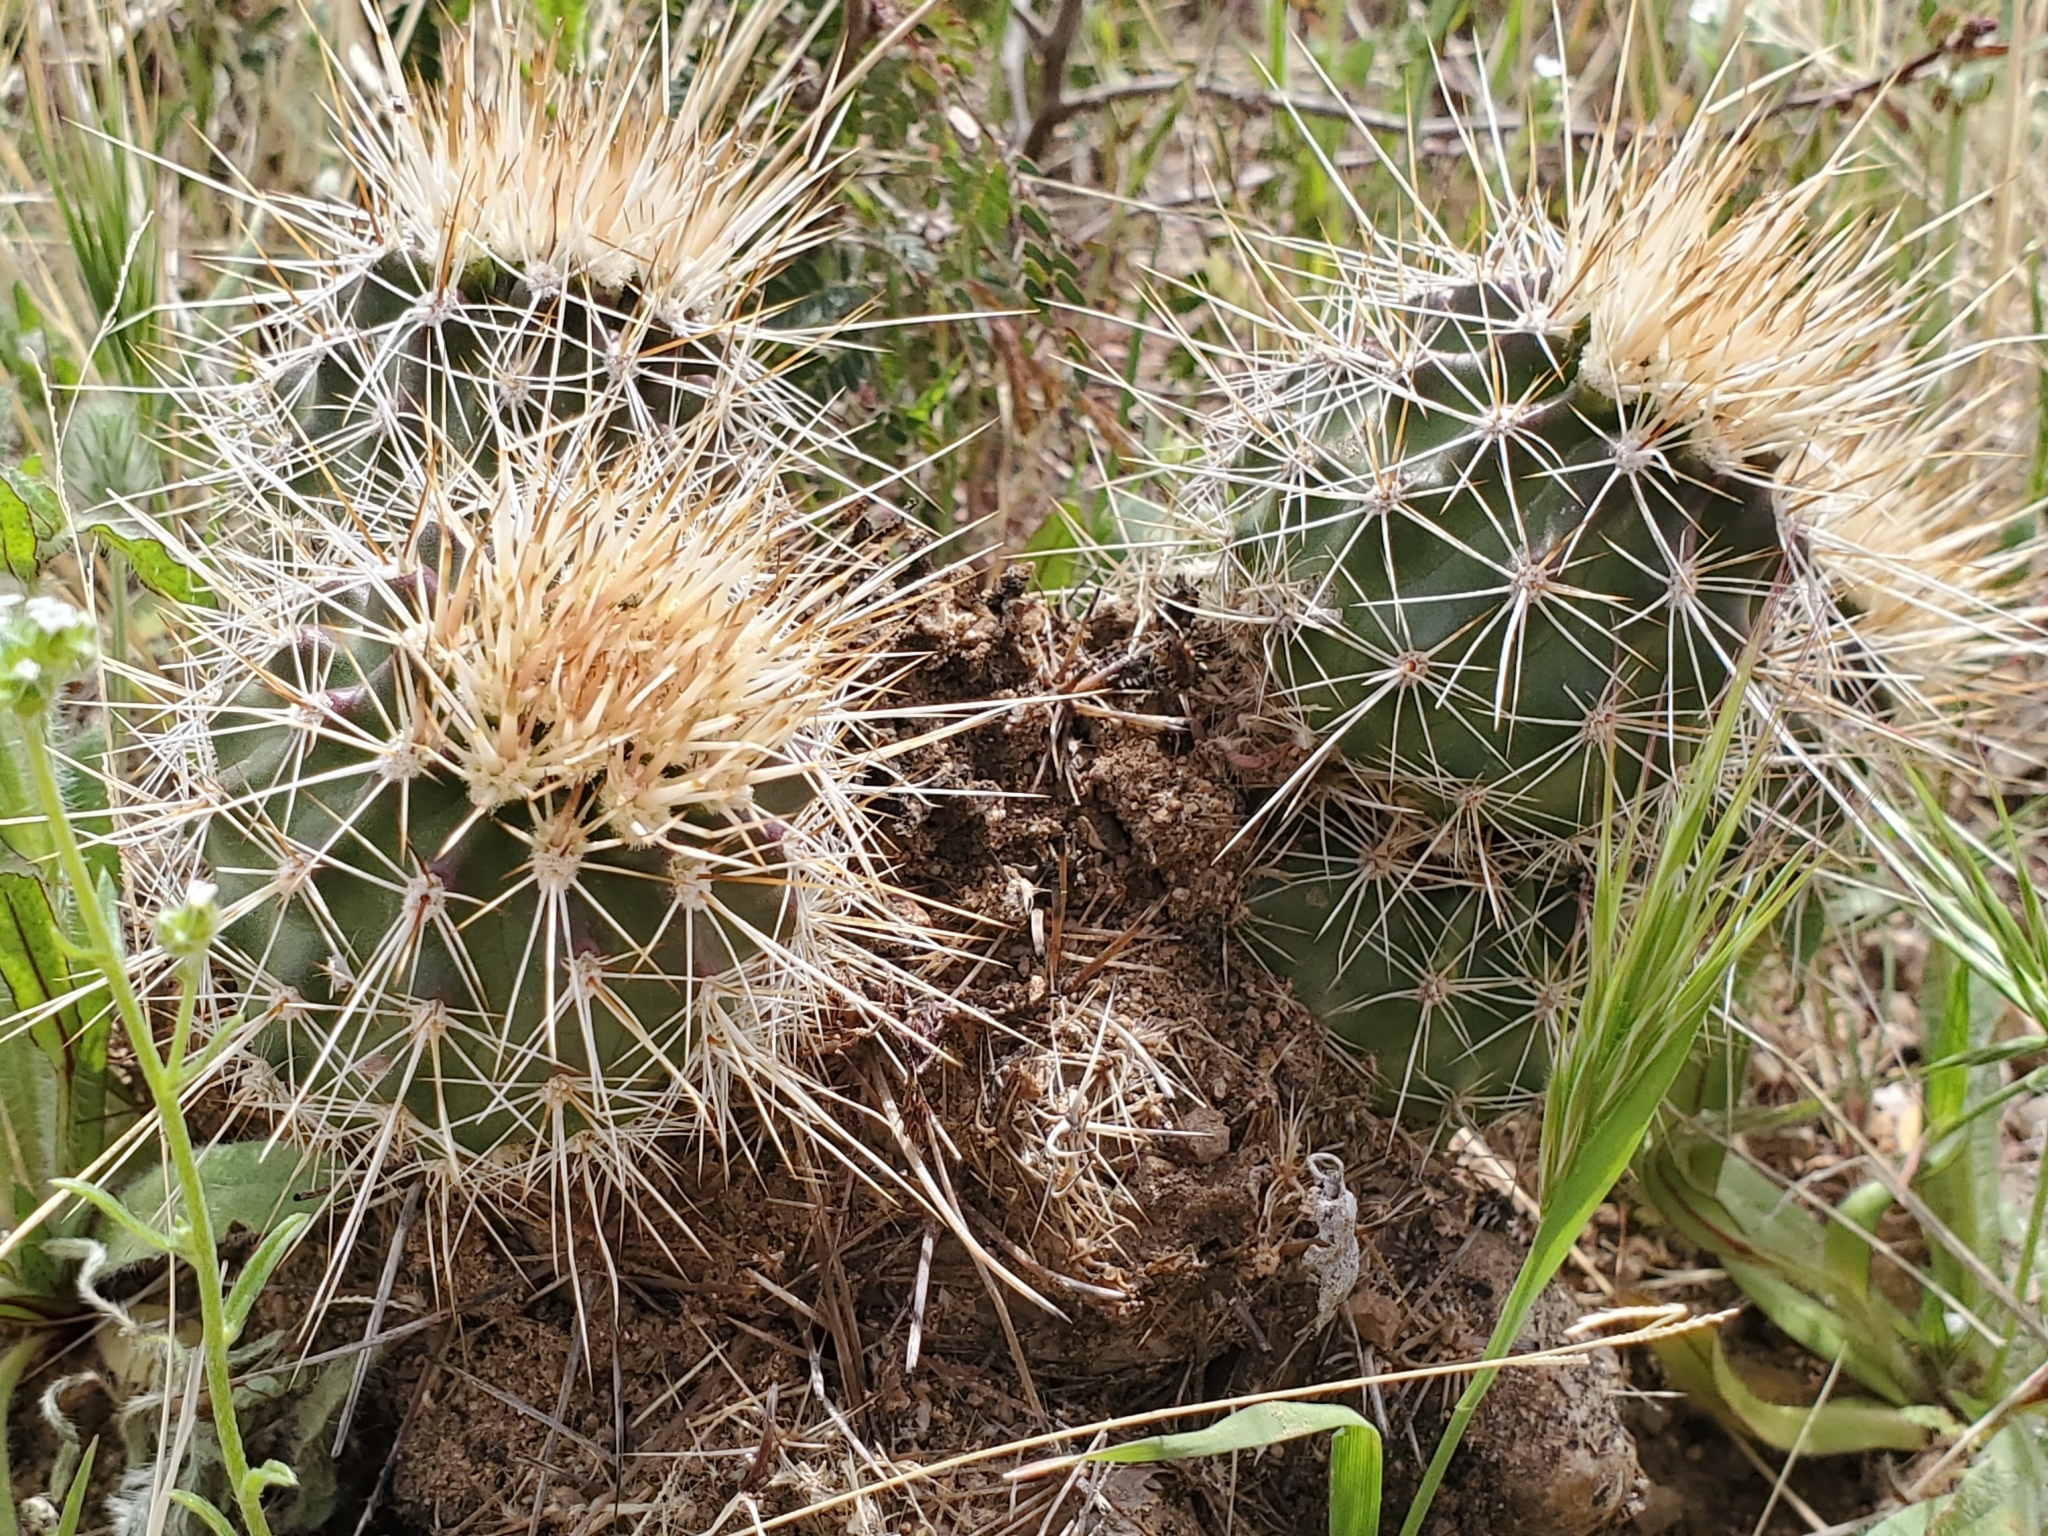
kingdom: Plantae
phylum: Tracheophyta
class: Magnoliopsida
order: Caryophyllales
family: Cactaceae
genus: Echinocereus
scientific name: Echinocereus engelmannii
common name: Engelmann's hedgehog cactus
